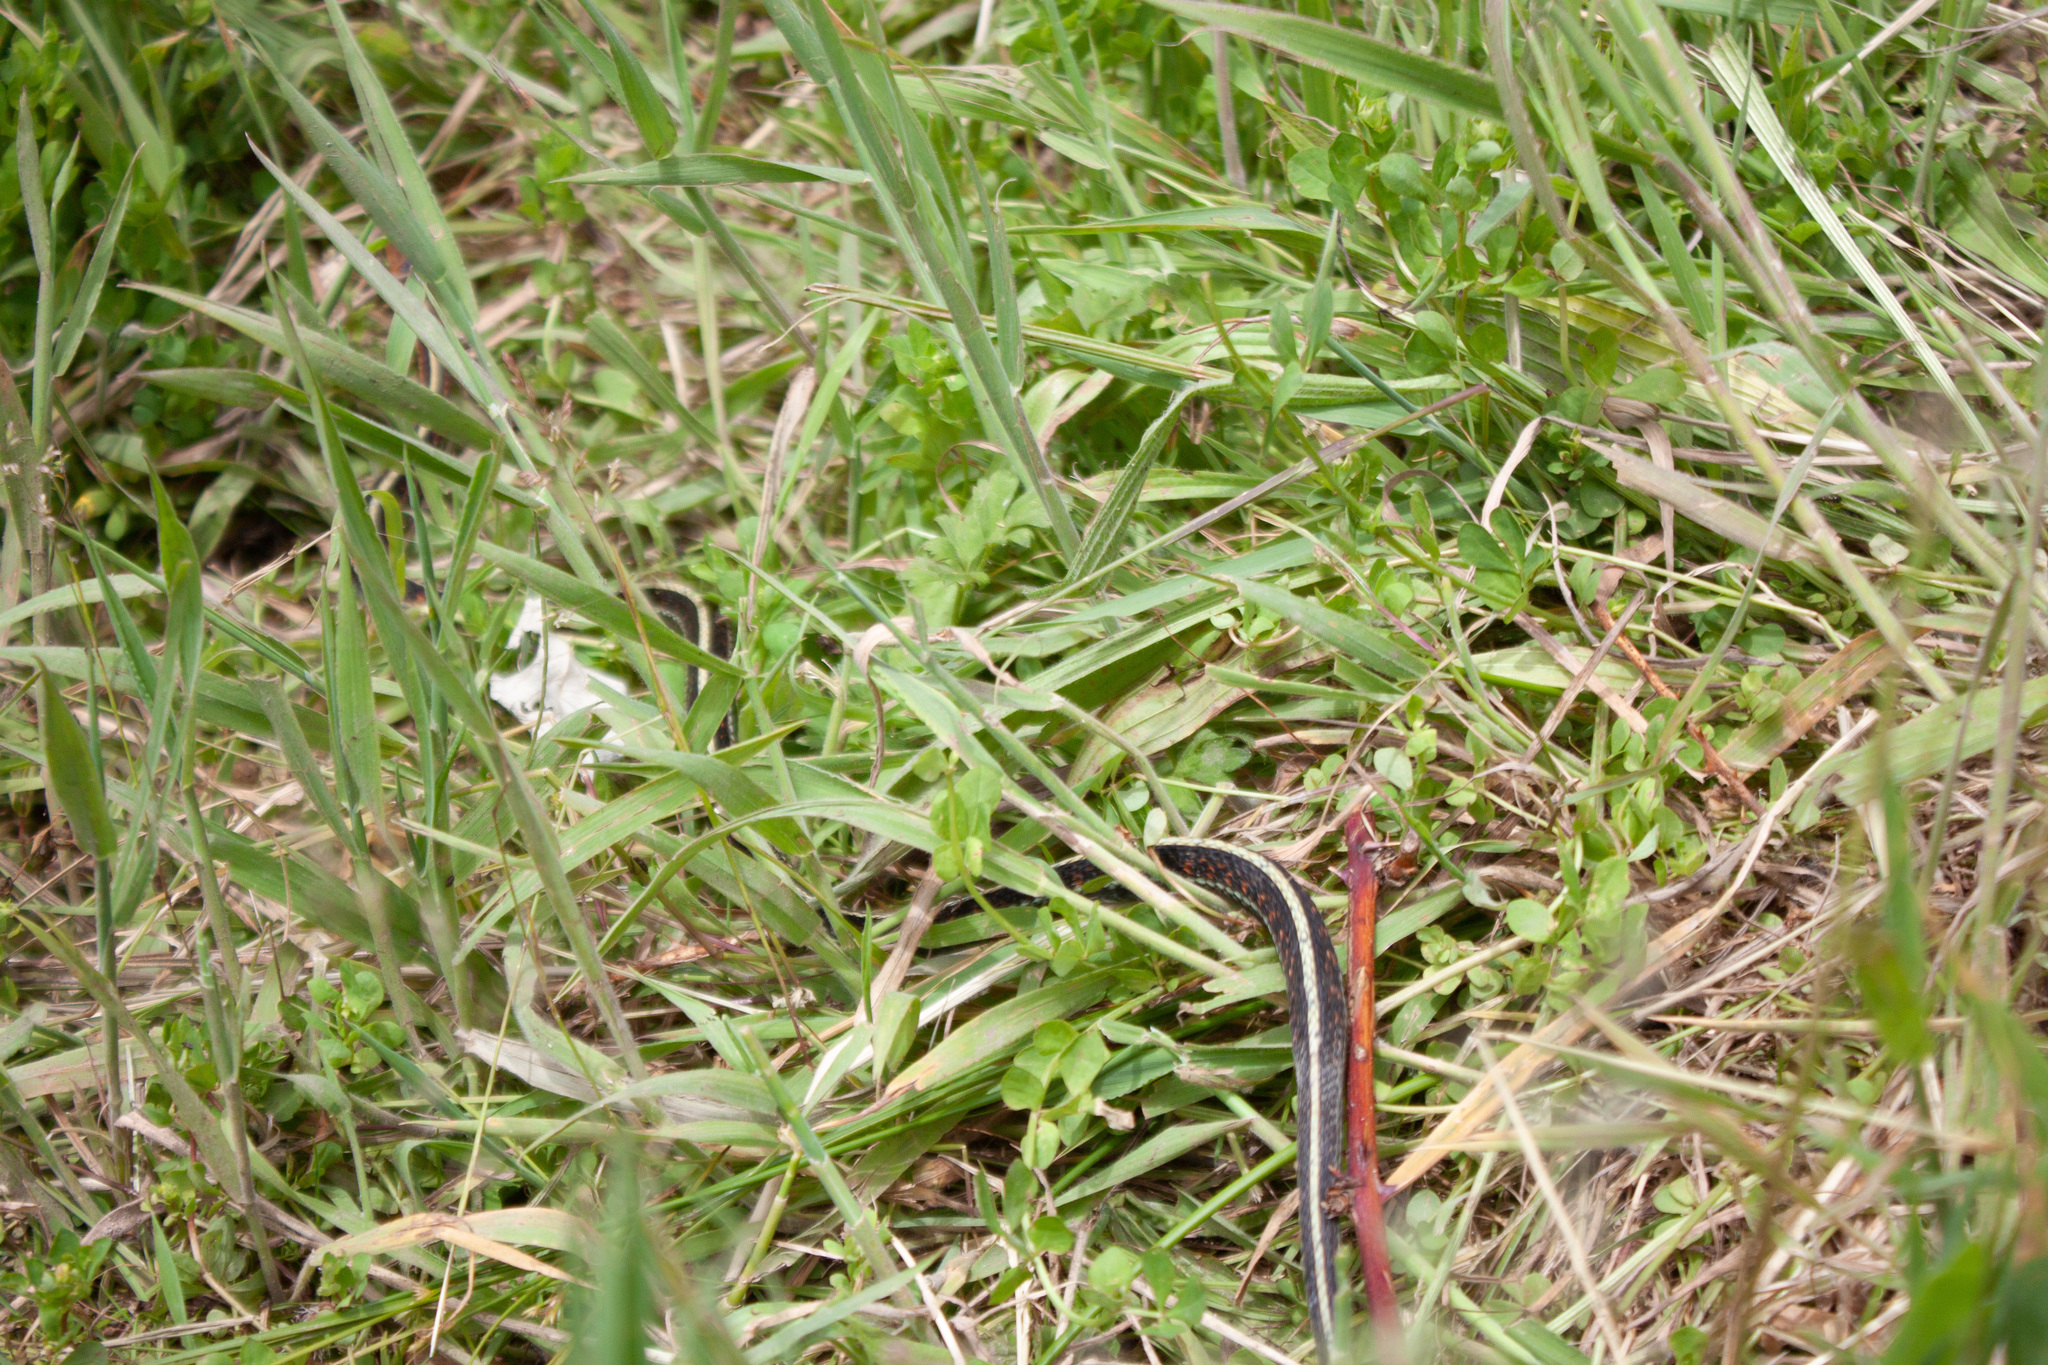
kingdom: Animalia
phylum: Chordata
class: Squamata
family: Colubridae
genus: Thamnophis
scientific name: Thamnophis sirtalis
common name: Common garter snake
